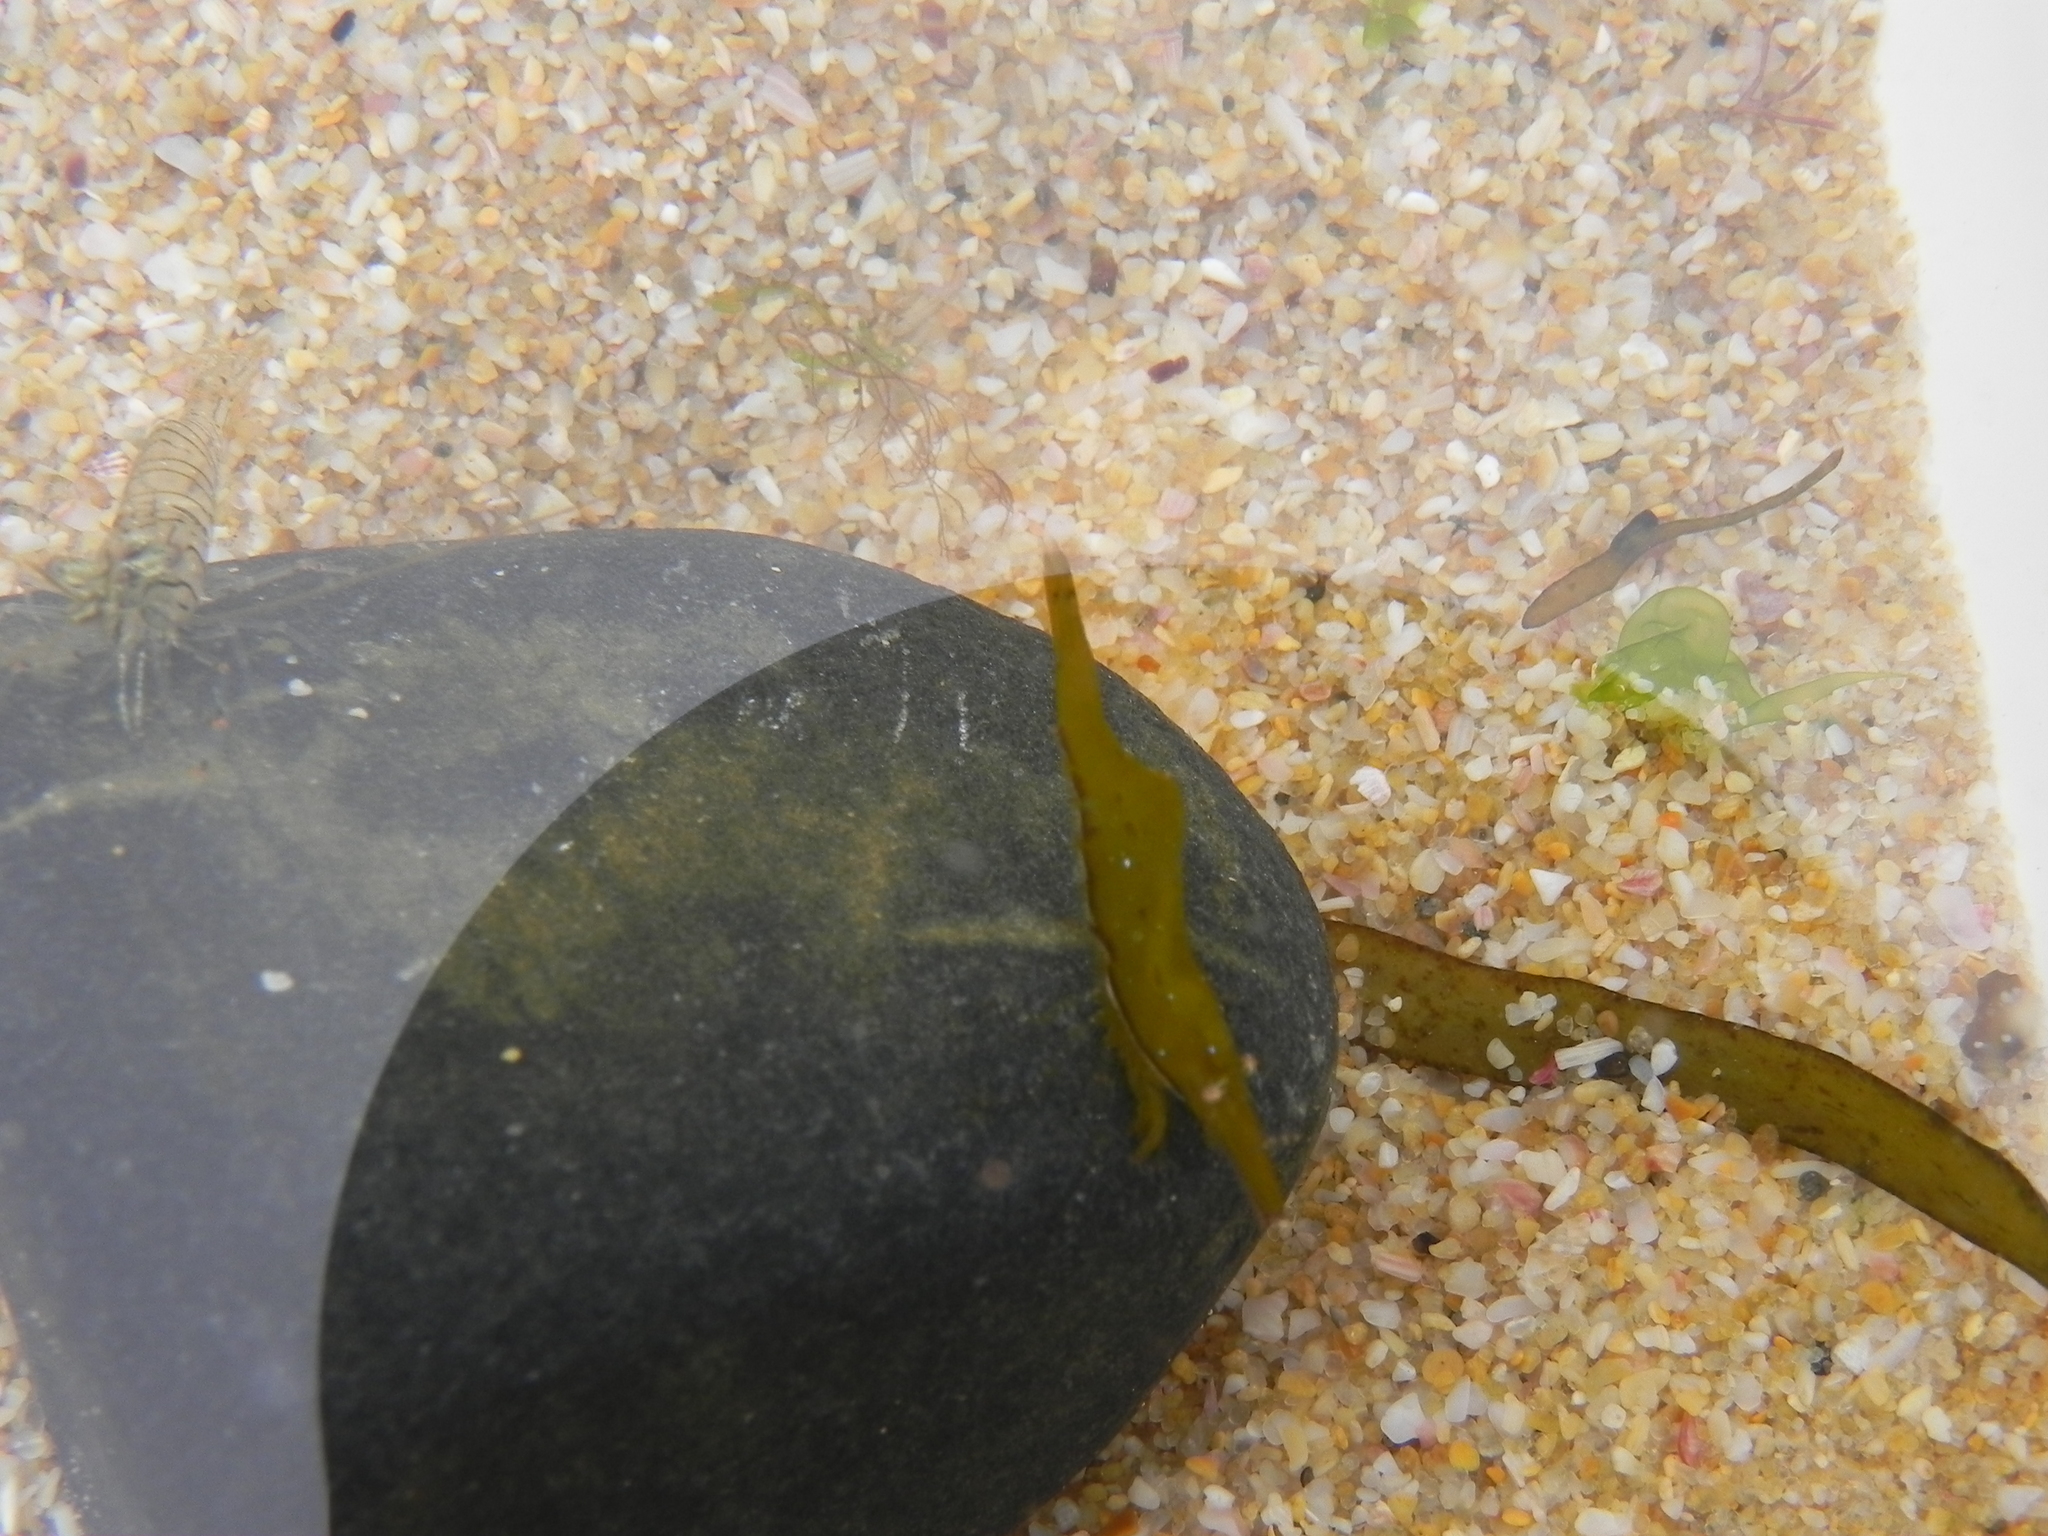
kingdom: Animalia
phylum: Arthropoda
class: Malacostraca
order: Decapoda
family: Hippolytidae
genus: Hippolyte
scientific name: Hippolyte kraussiana
